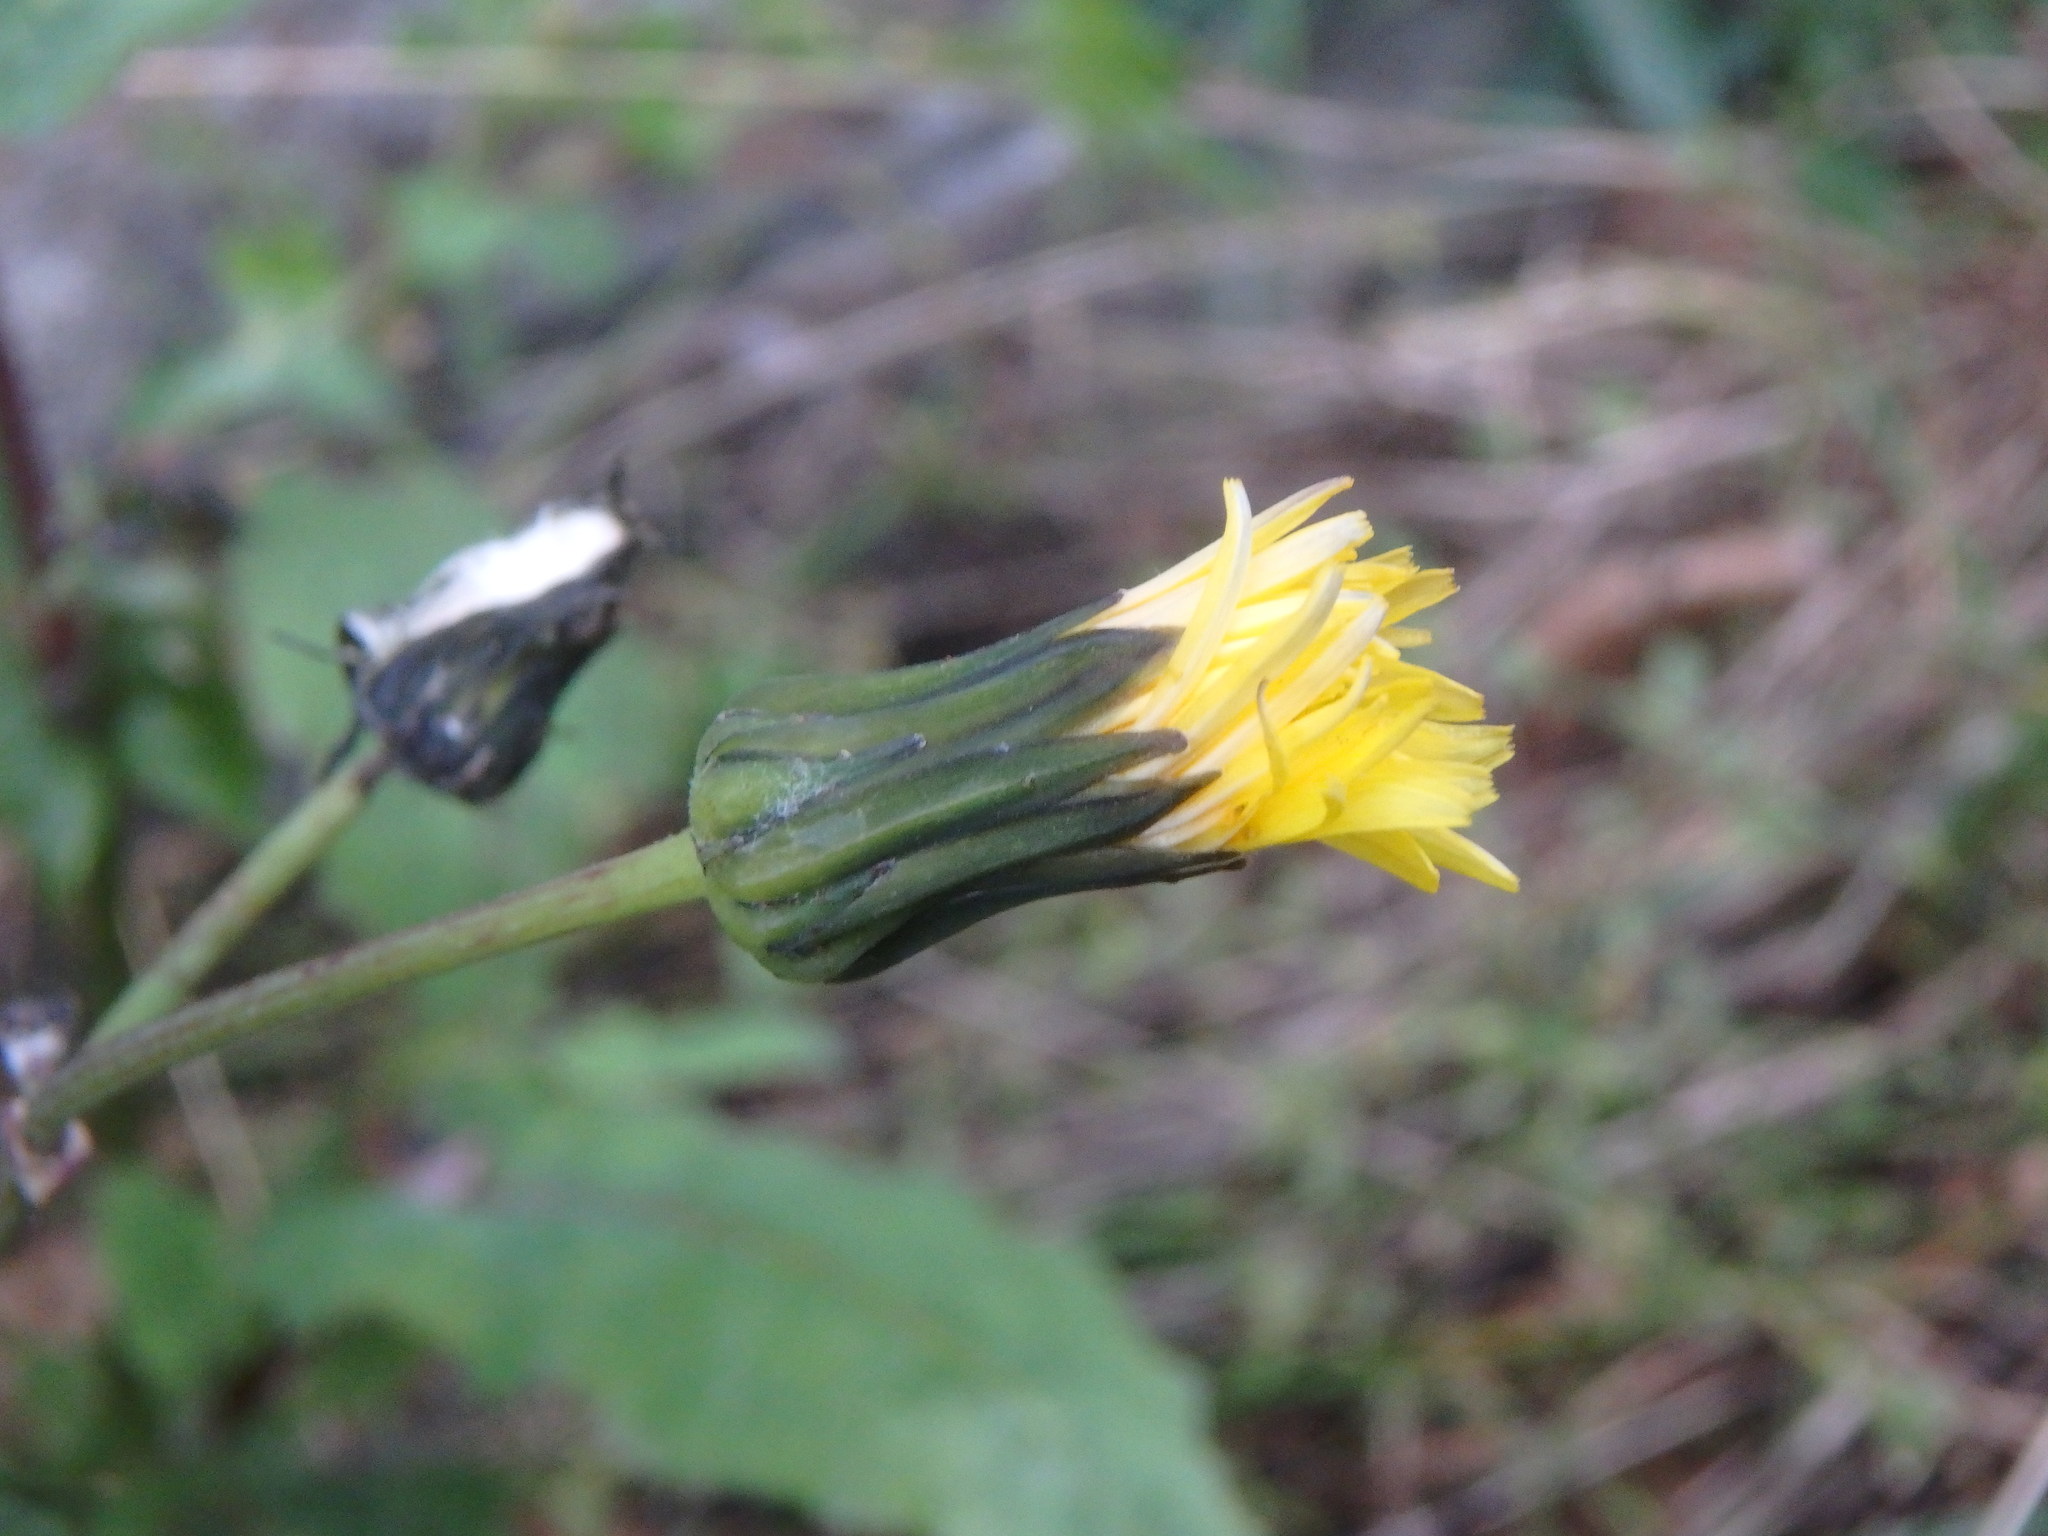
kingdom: Plantae
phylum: Tracheophyta
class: Magnoliopsida
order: Asterales
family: Asteraceae
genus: Sonchus
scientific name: Sonchus oleraceus
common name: Common sowthistle
